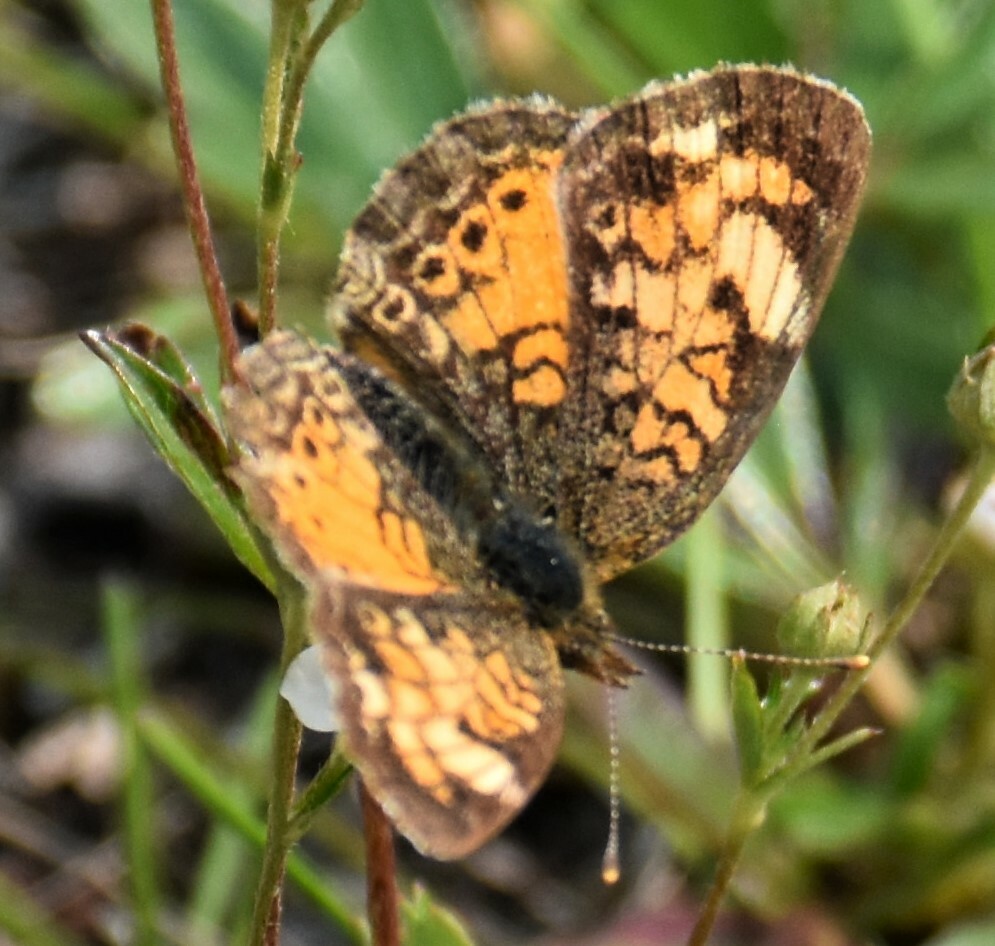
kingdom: Animalia
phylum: Arthropoda
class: Insecta
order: Lepidoptera
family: Nymphalidae
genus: Phyciodes
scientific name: Phyciodes tharos
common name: Pearl crescent
